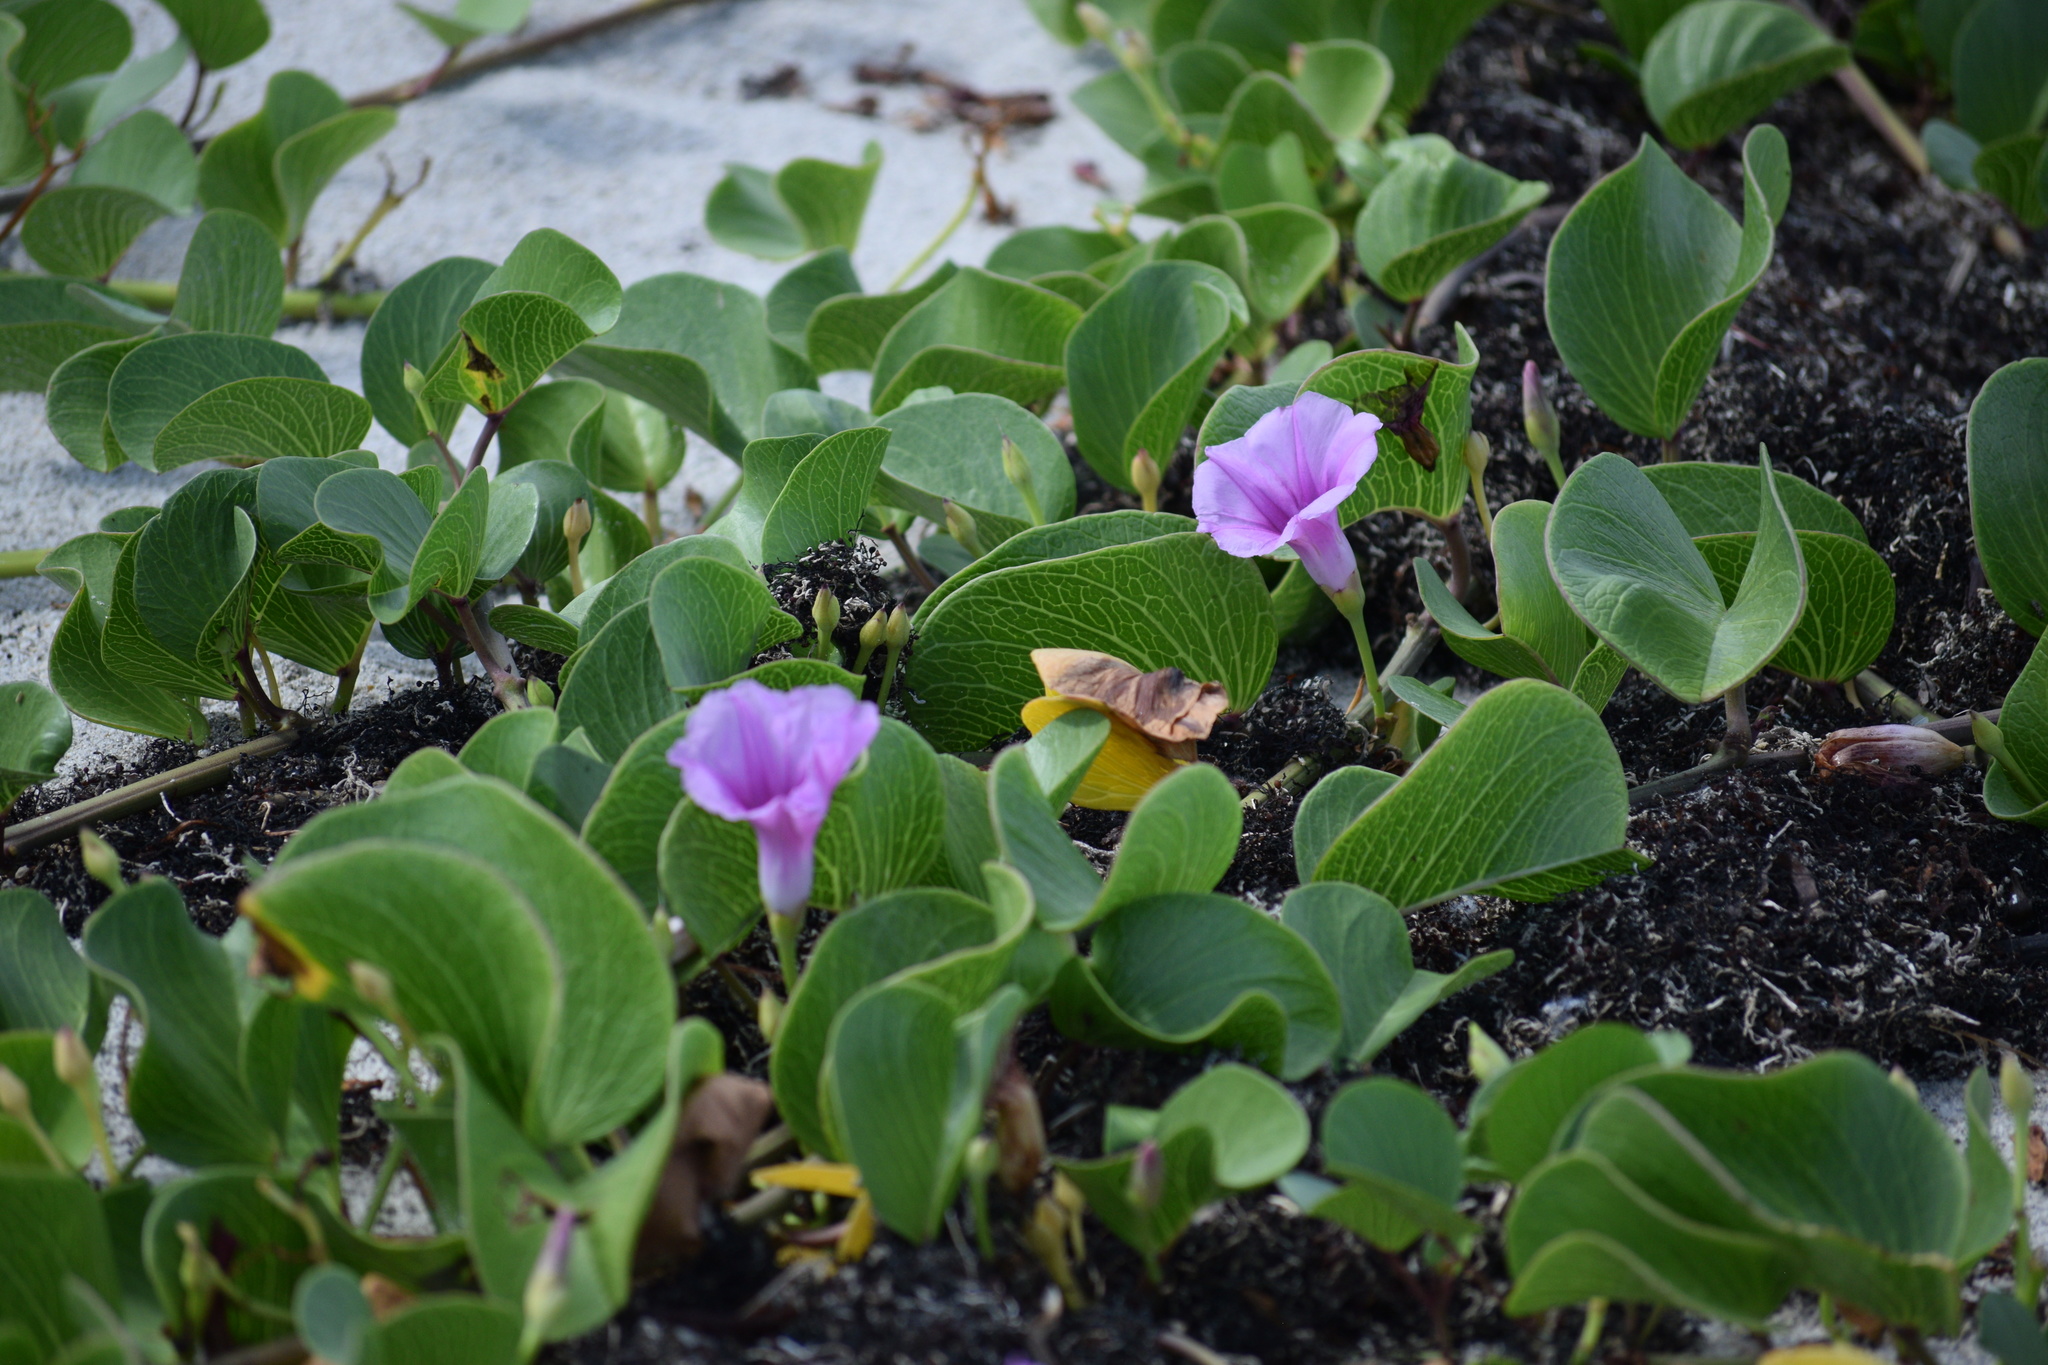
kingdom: Plantae
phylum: Tracheophyta
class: Magnoliopsida
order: Solanales
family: Convolvulaceae
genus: Ipomoea
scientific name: Ipomoea pes-caprae
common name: Beach morning glory
